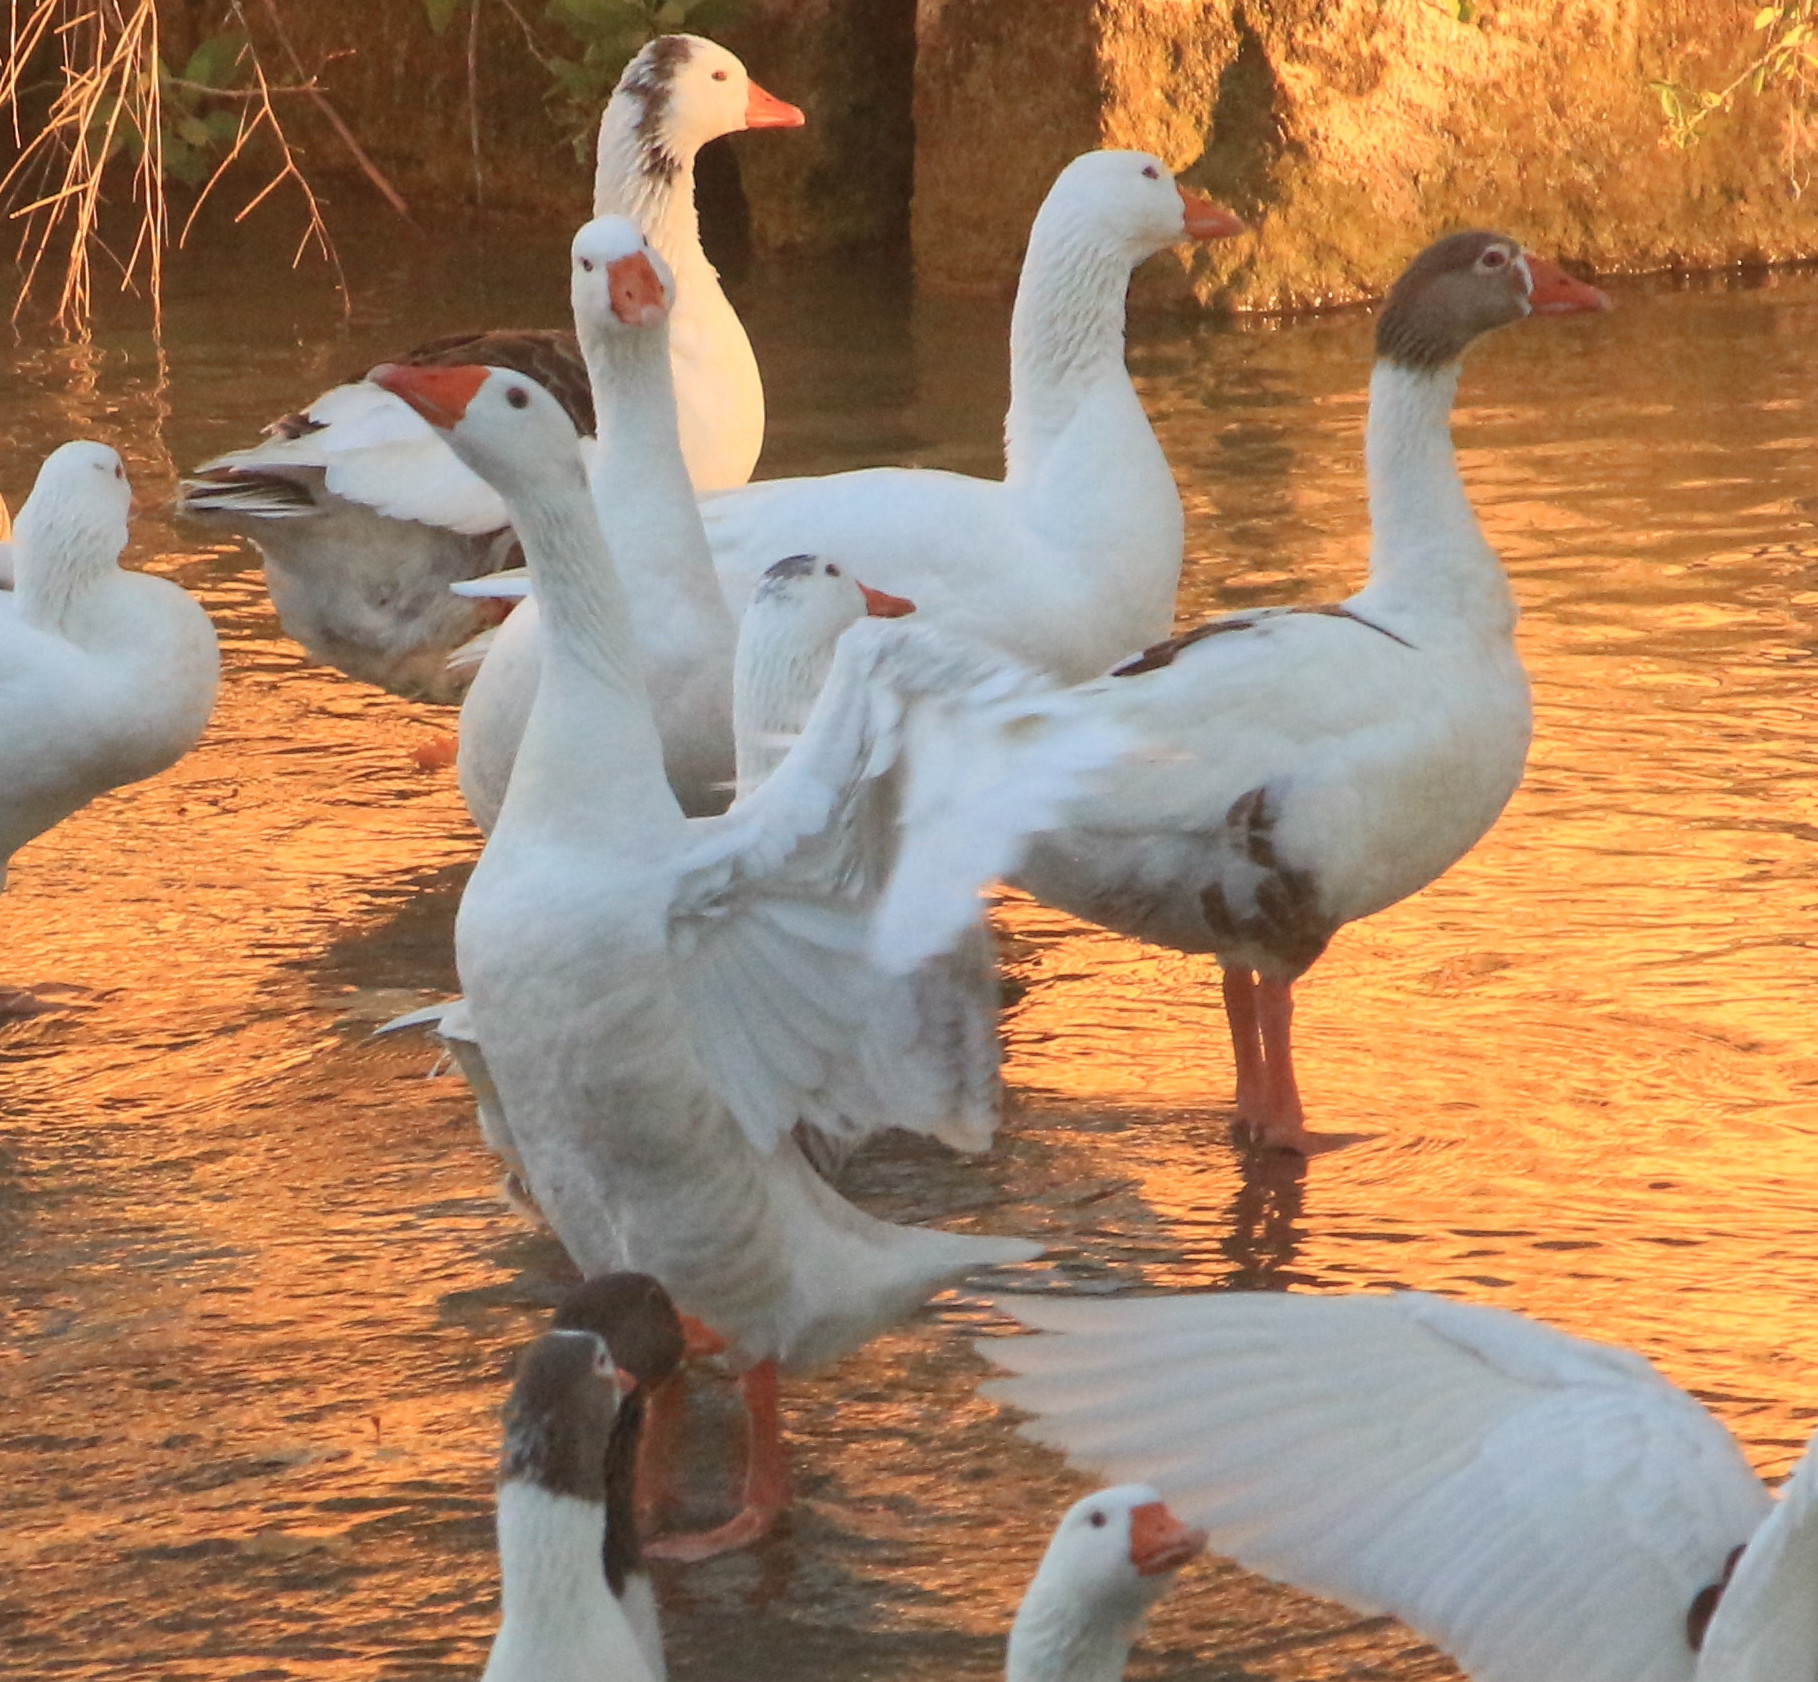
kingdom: Animalia
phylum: Chordata
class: Aves
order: Anseriformes
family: Anatidae
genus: Anser
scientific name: Anser anser
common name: Greylag goose
